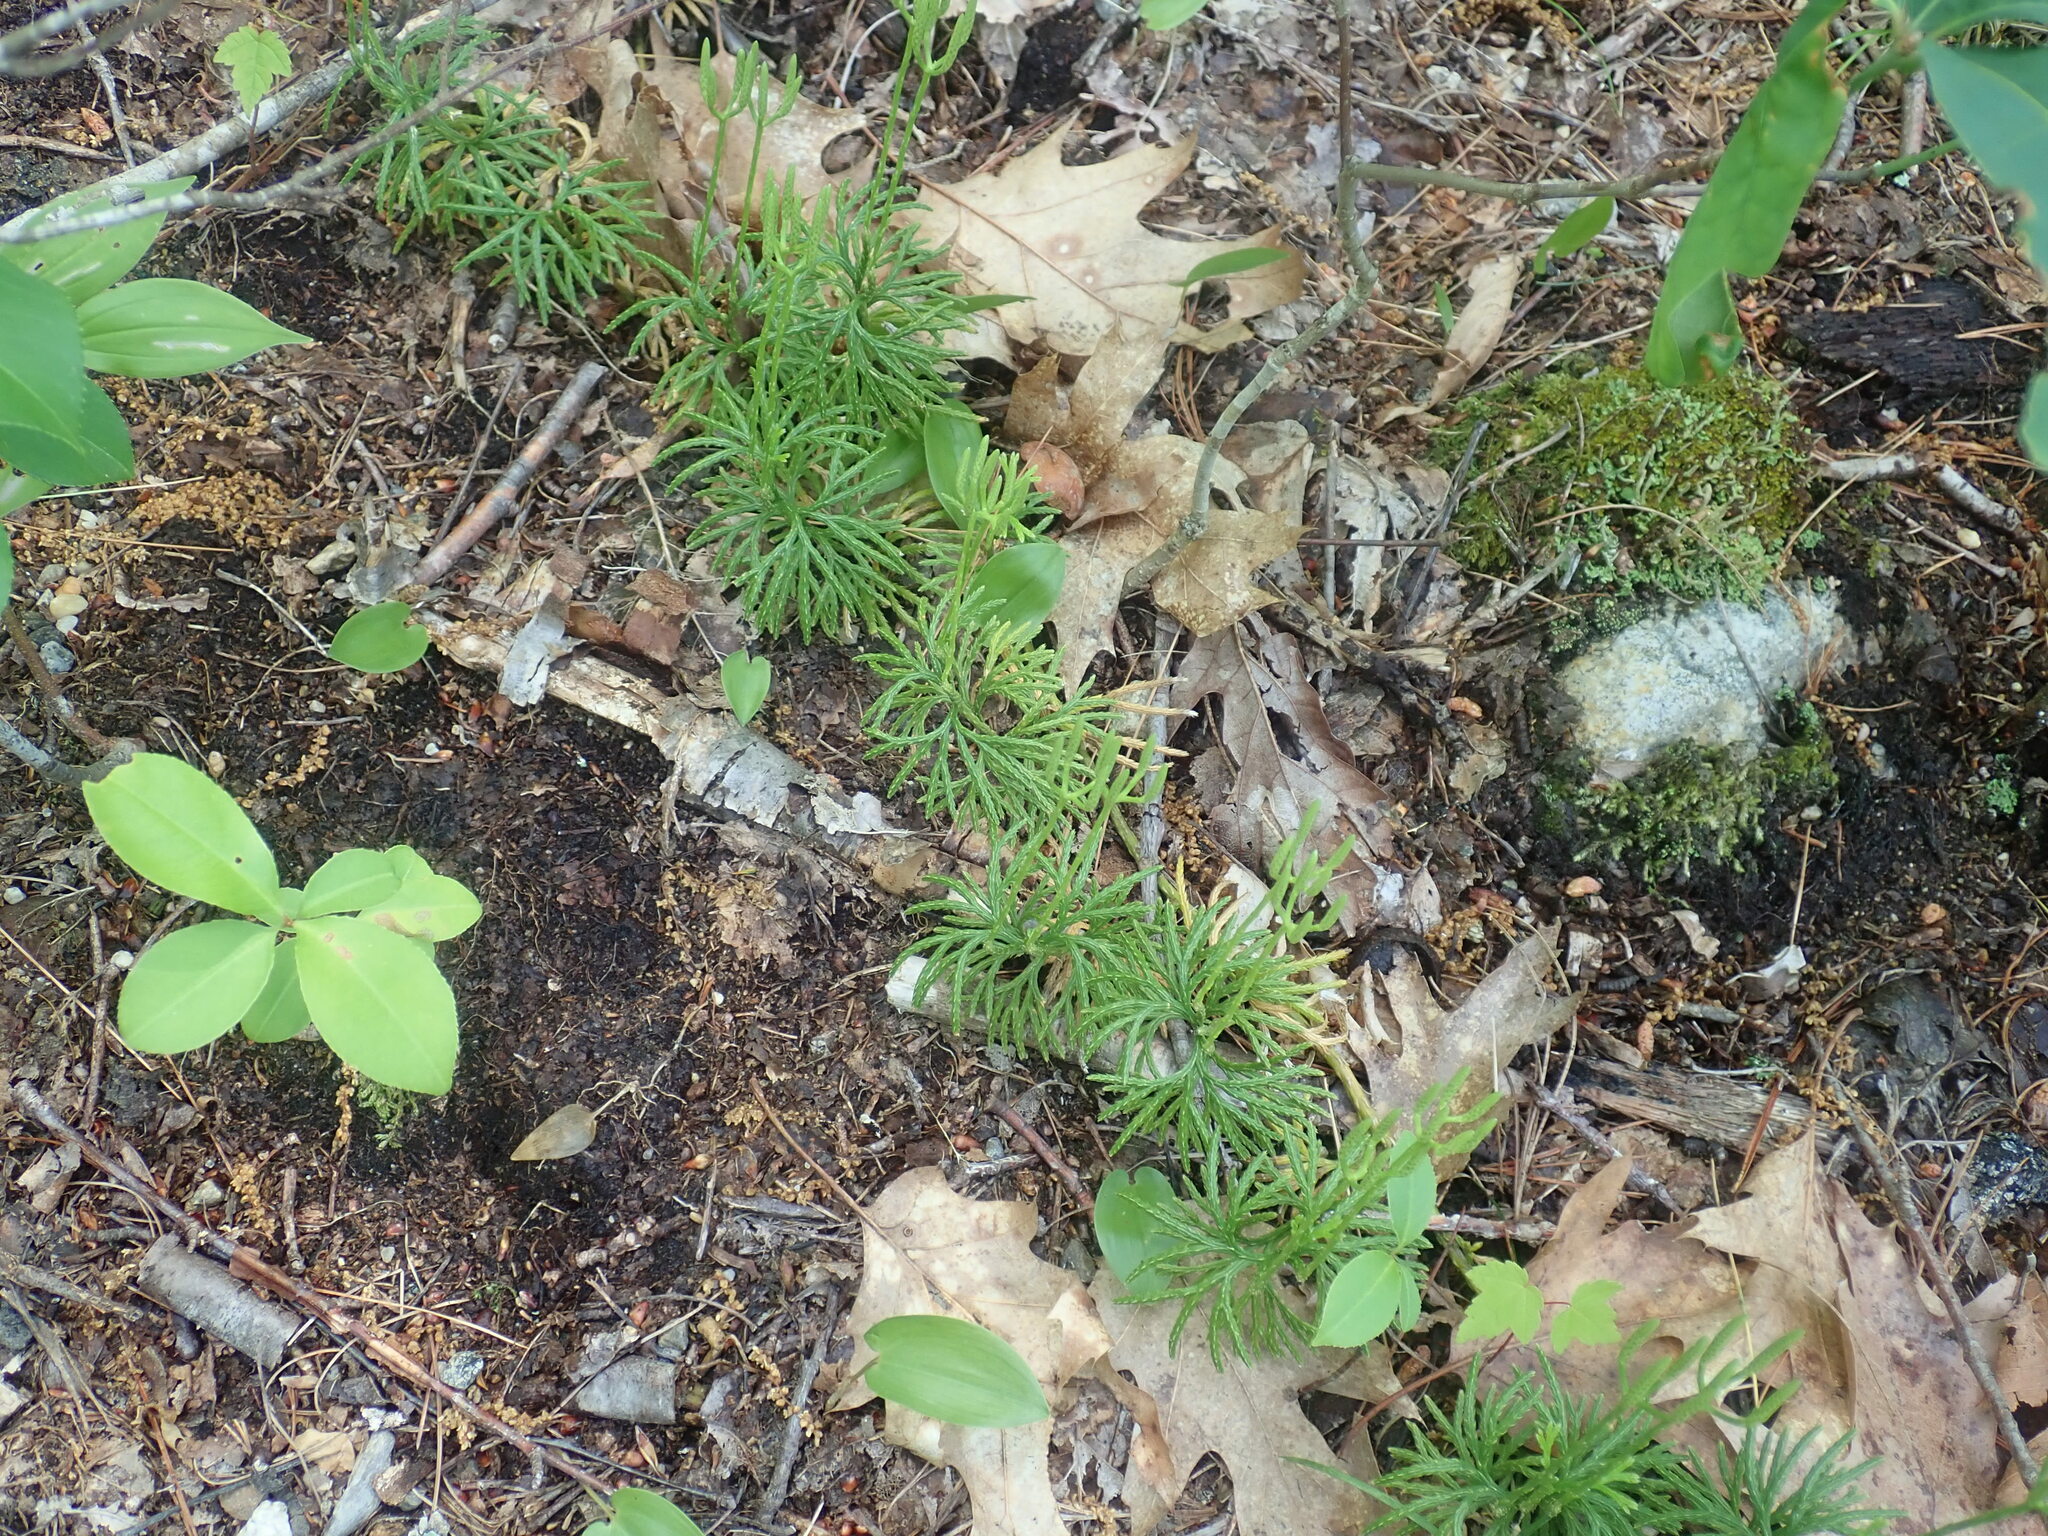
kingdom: Plantae
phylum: Tracheophyta
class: Lycopodiopsida
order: Lycopodiales
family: Lycopodiaceae
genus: Diphasiastrum
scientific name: Diphasiastrum digitatum
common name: Southern running-pine
